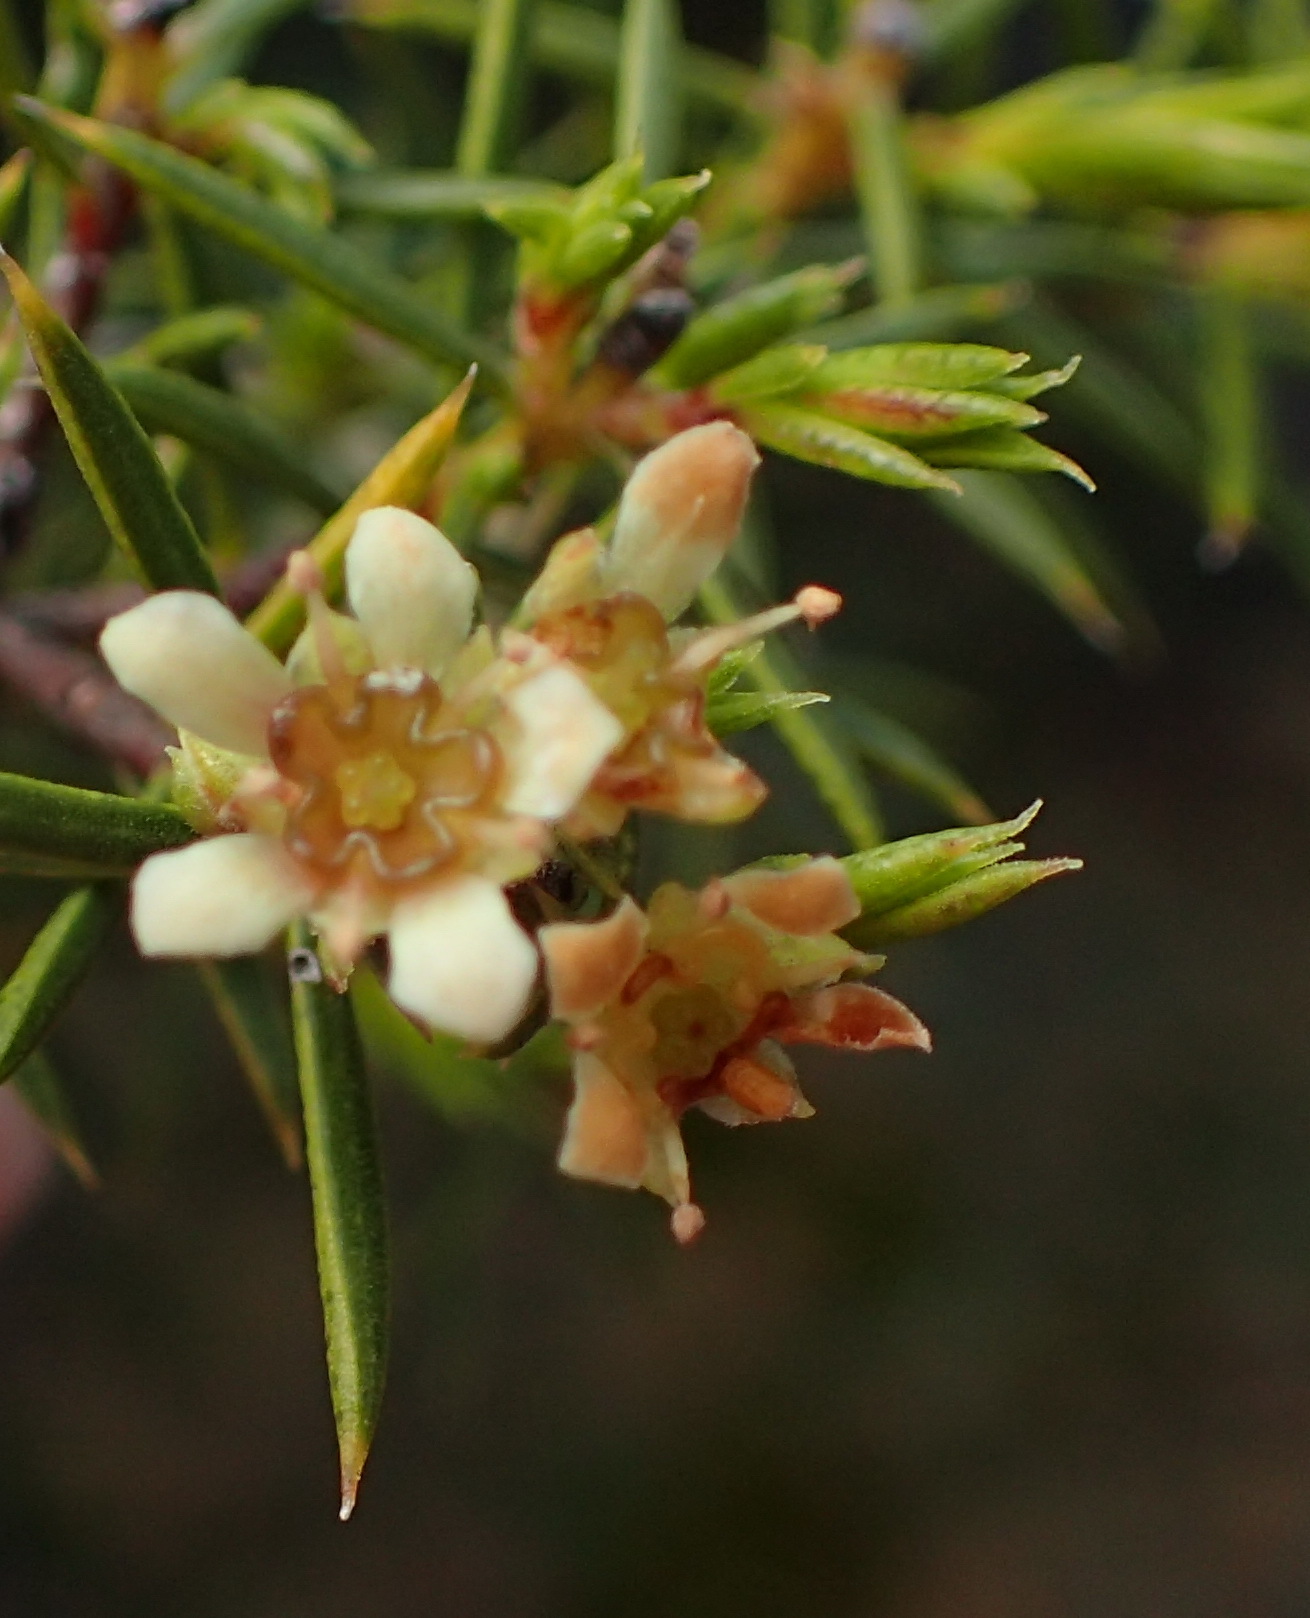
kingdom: Plantae
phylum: Tracheophyta
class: Magnoliopsida
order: Sapindales
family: Rutaceae
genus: Diosma
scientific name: Diosma acmaeophylla
